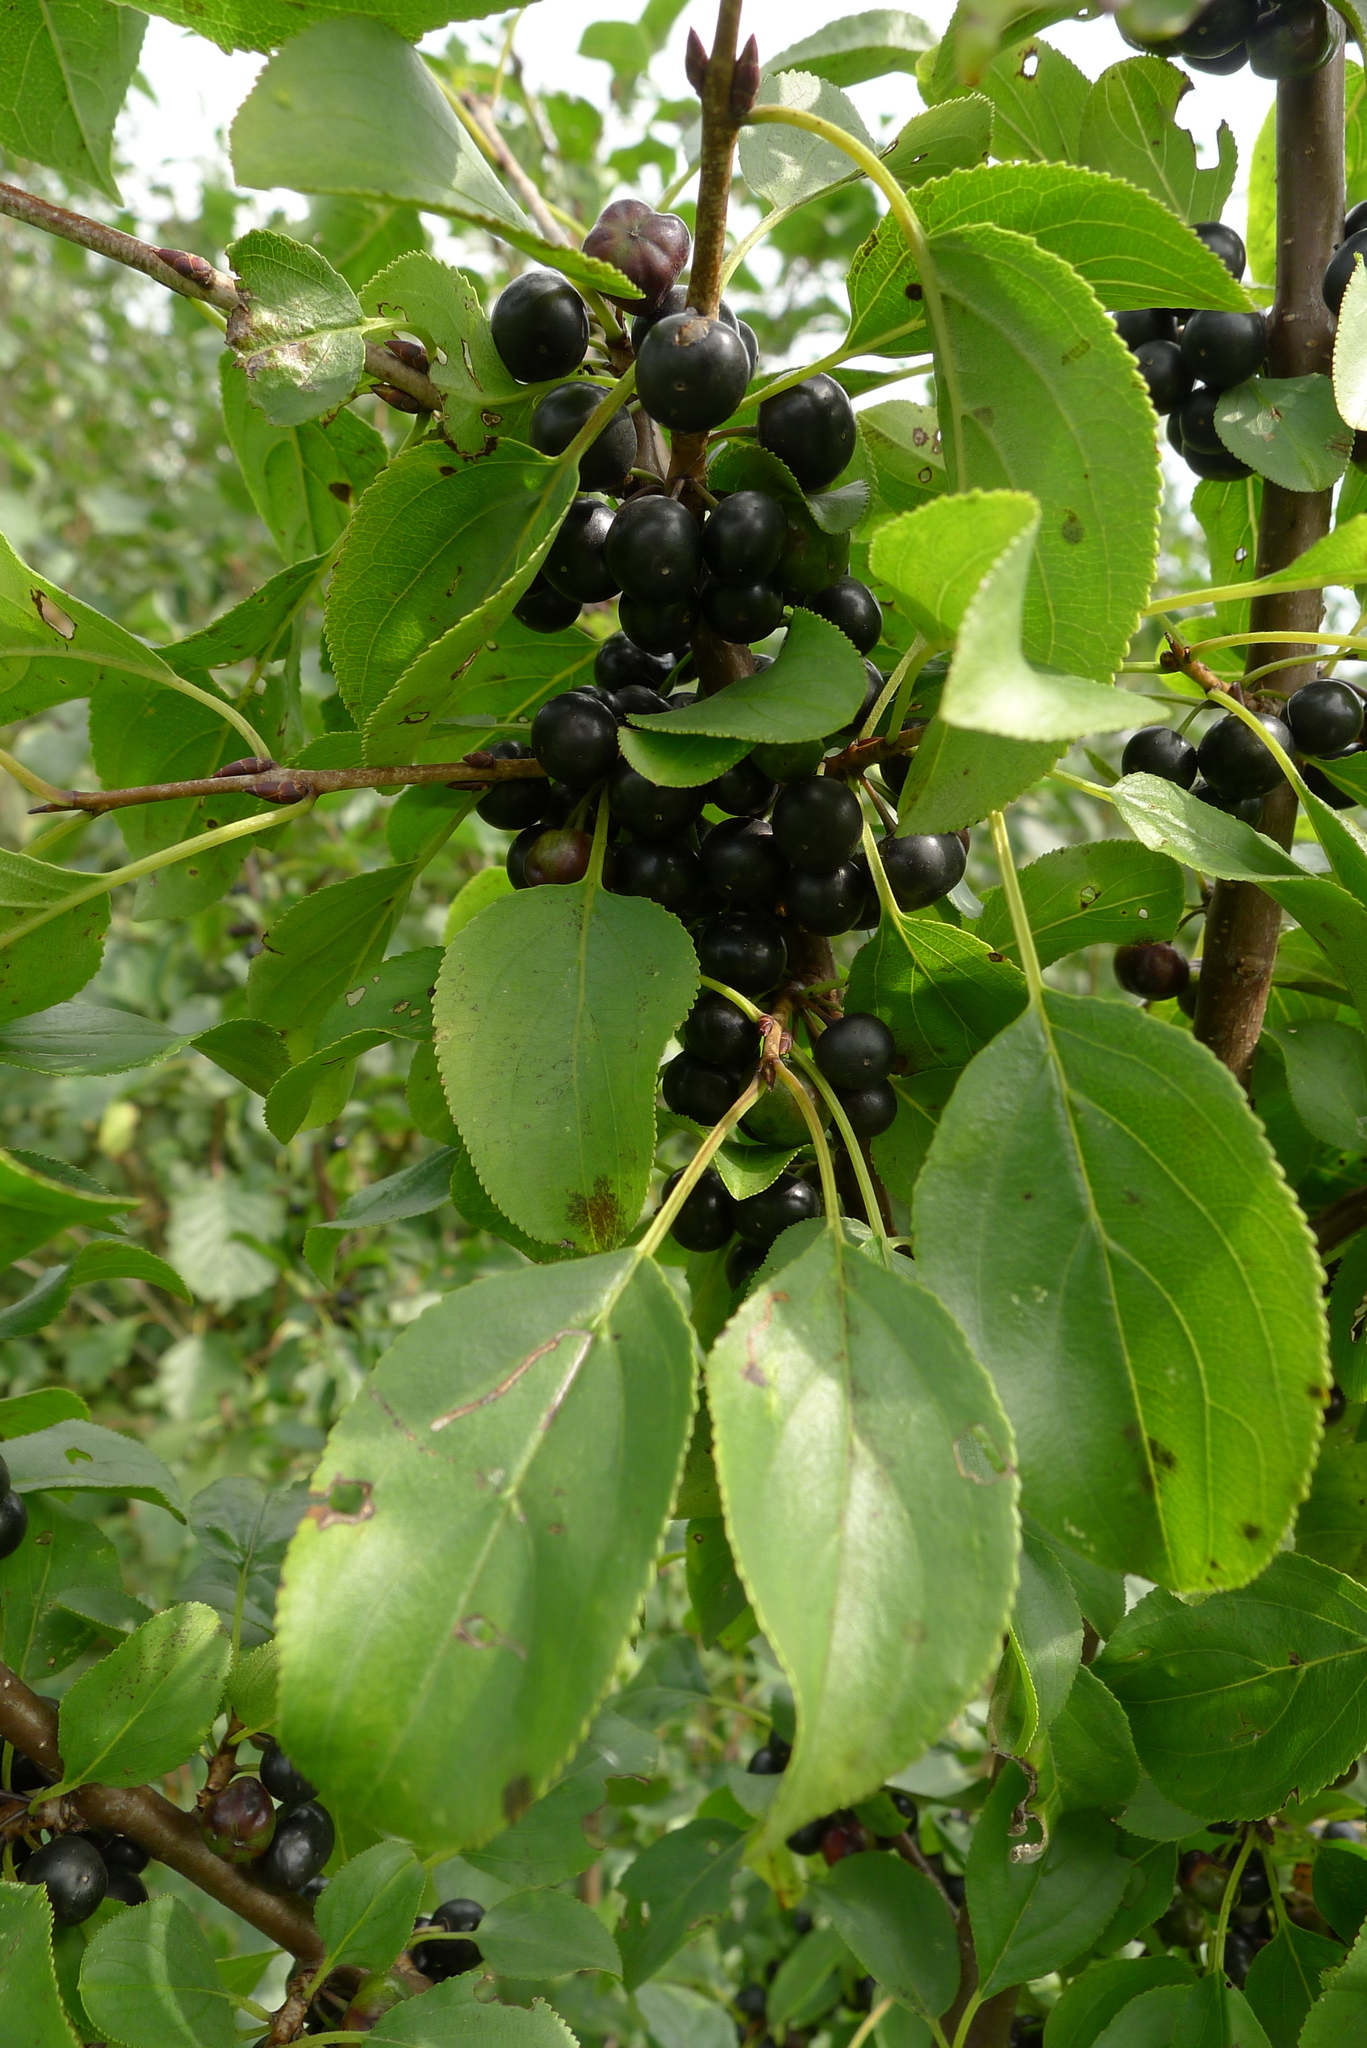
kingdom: Plantae
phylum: Tracheophyta
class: Magnoliopsida
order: Rosales
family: Rhamnaceae
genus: Rhamnus
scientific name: Rhamnus cathartica
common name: Common buckthorn
